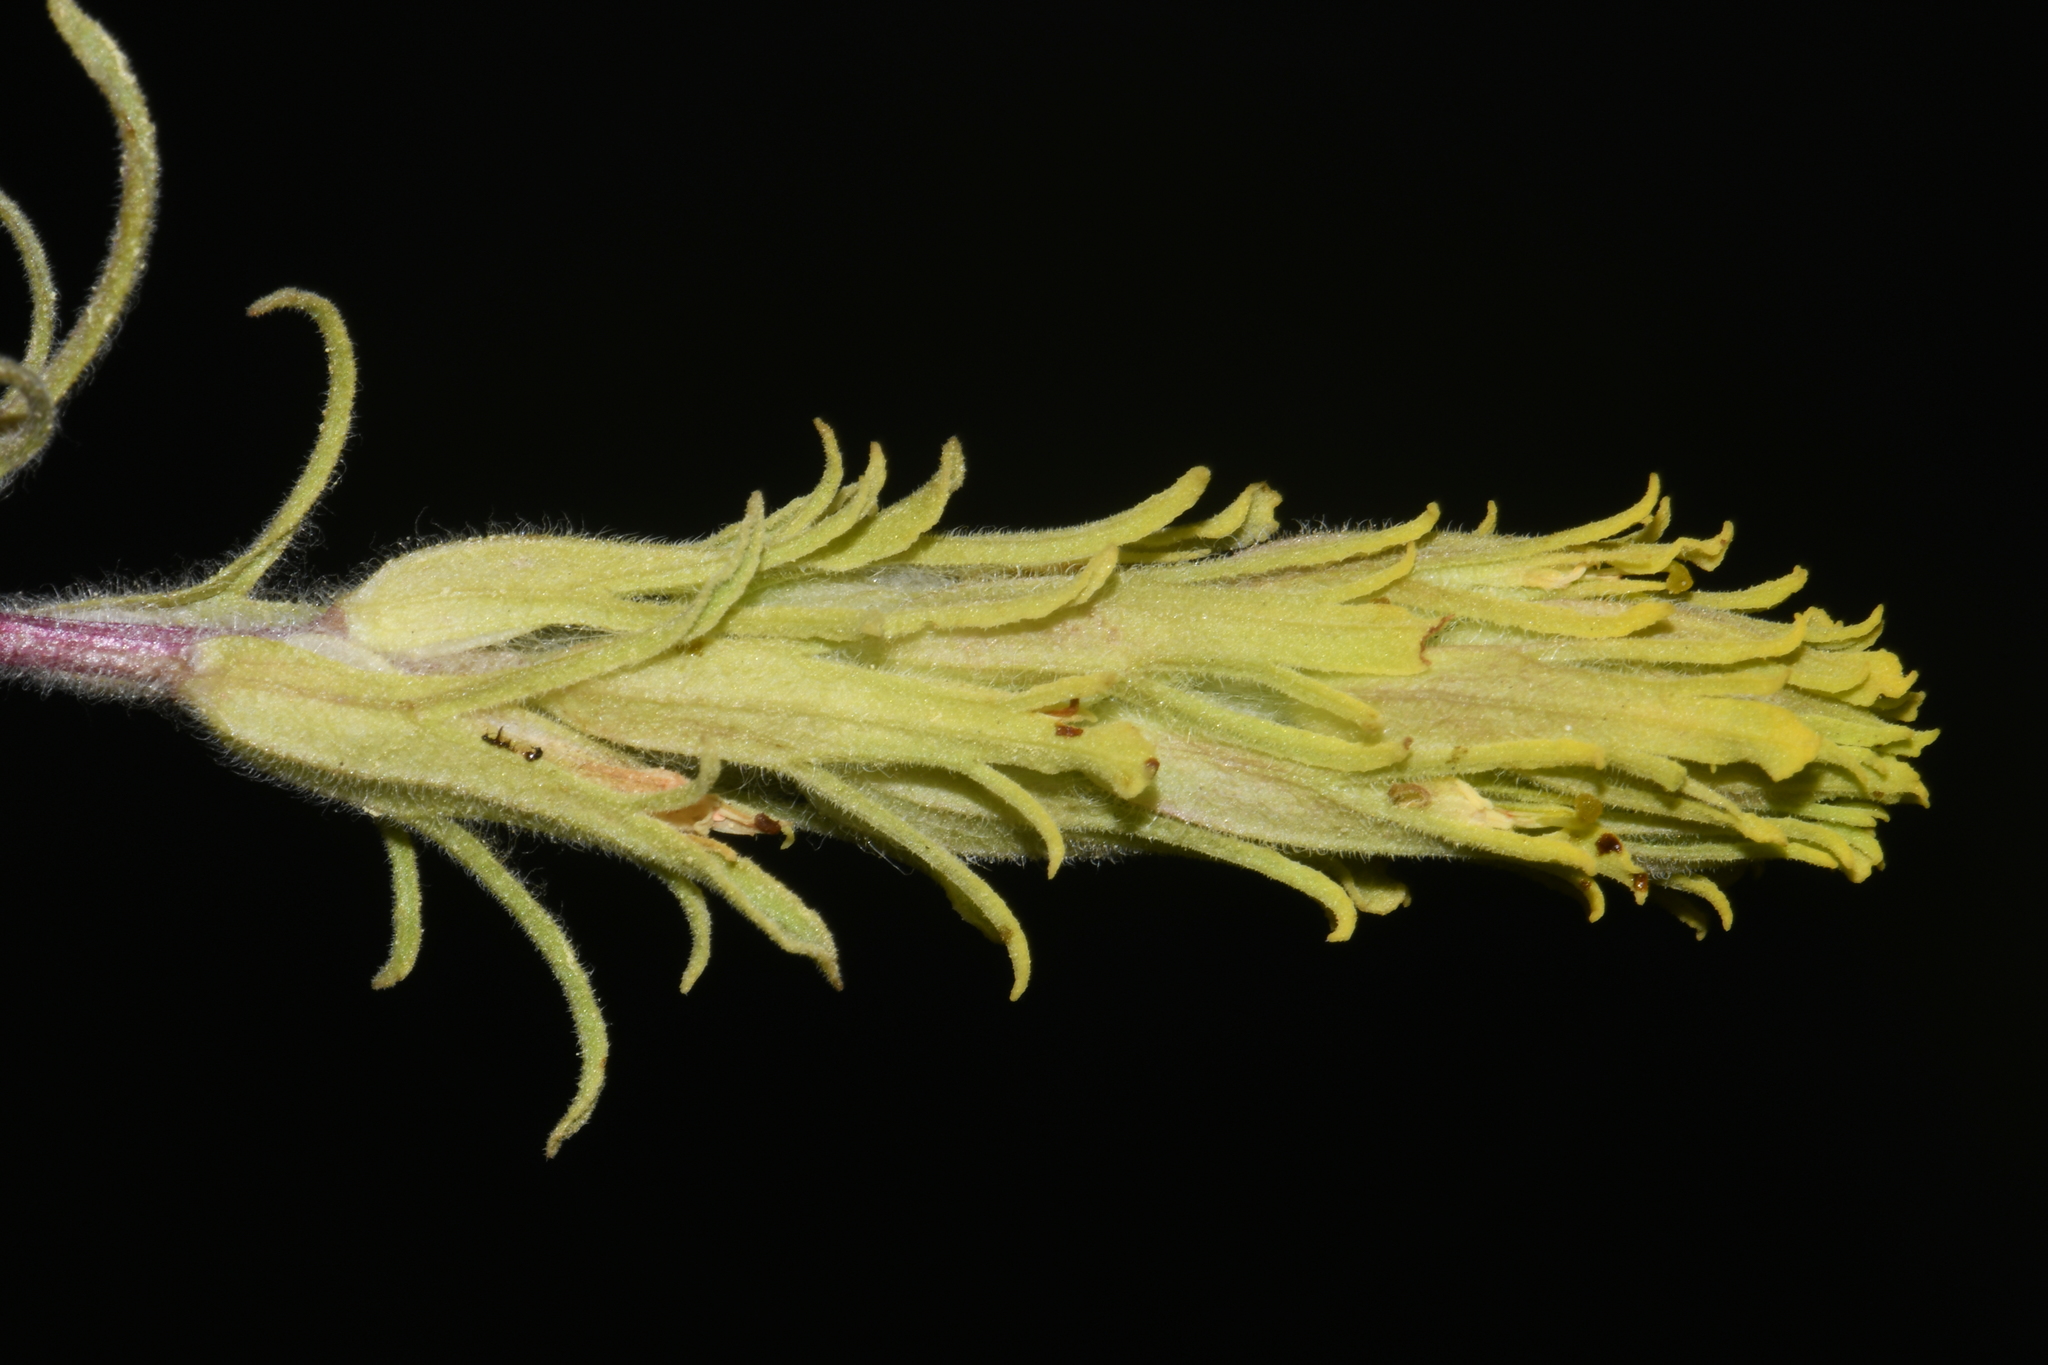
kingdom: Plantae
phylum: Tracheophyta
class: Magnoliopsida
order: Lamiales
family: Orobanchaceae
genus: Castilleja
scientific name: Castilleja pilosa
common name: Hairy paintbrush
